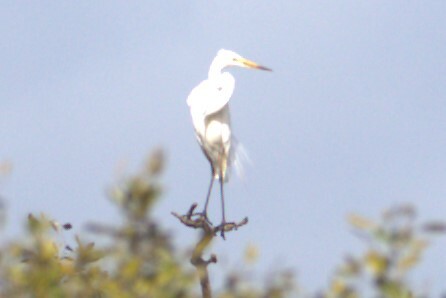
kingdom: Animalia
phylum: Chordata
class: Aves
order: Pelecaniformes
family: Ardeidae
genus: Ardea
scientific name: Ardea alba
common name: Great egret
